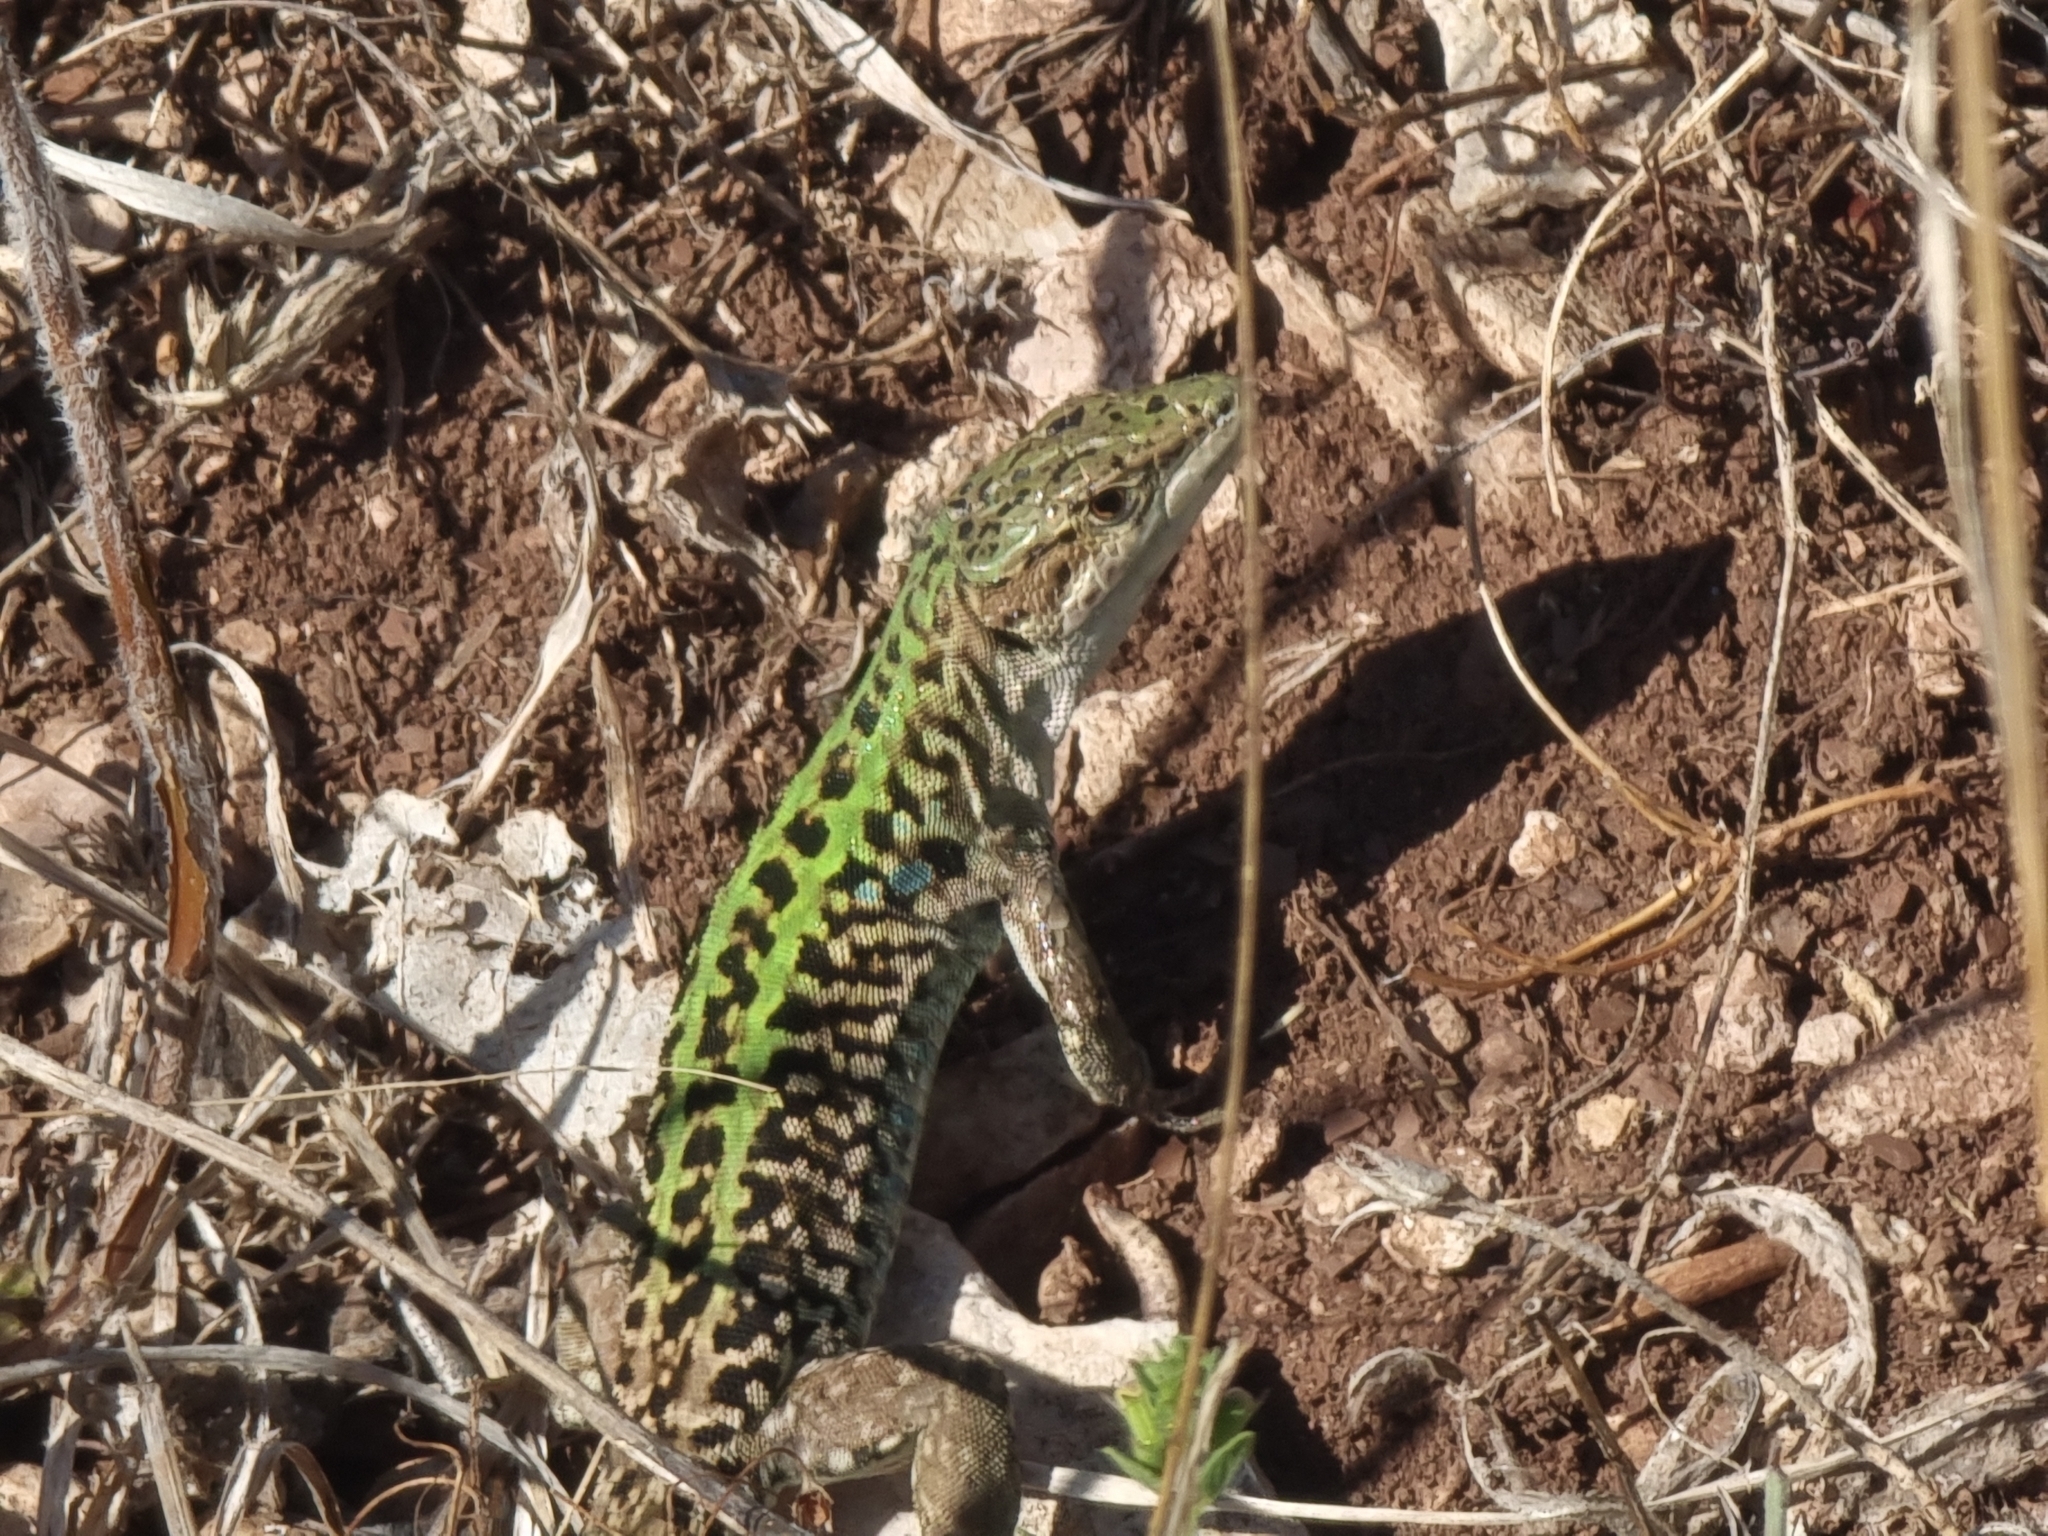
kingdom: Animalia
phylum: Chordata
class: Squamata
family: Lacertidae
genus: Podarcis
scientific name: Podarcis siculus
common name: Italian wall lizard
